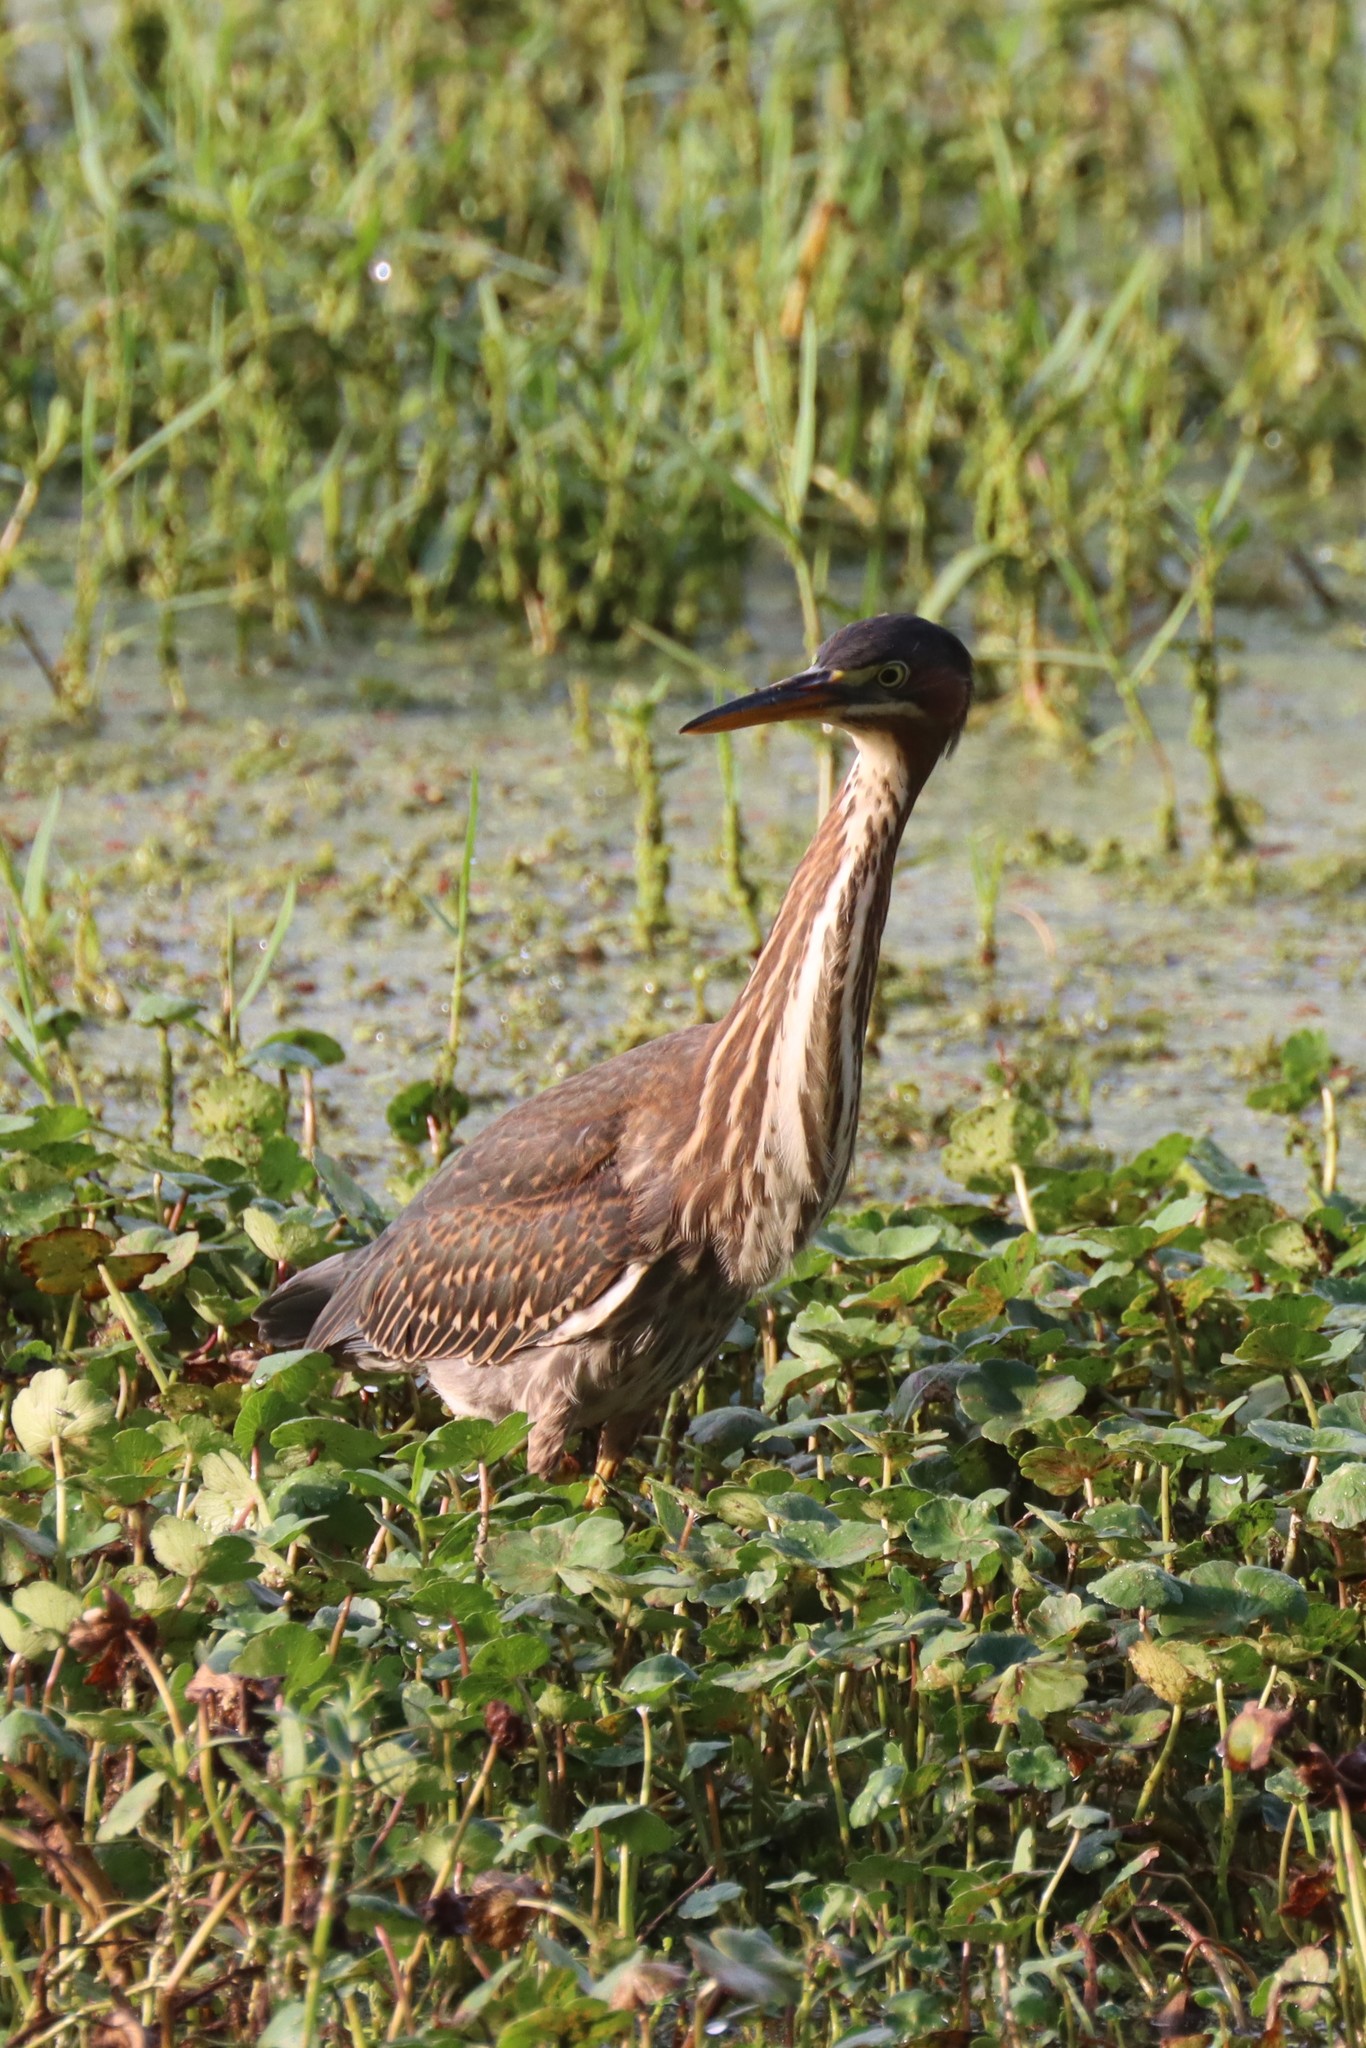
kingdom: Animalia
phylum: Chordata
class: Aves
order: Pelecaniformes
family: Ardeidae
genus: Butorides
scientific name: Butorides virescens
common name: Green heron
